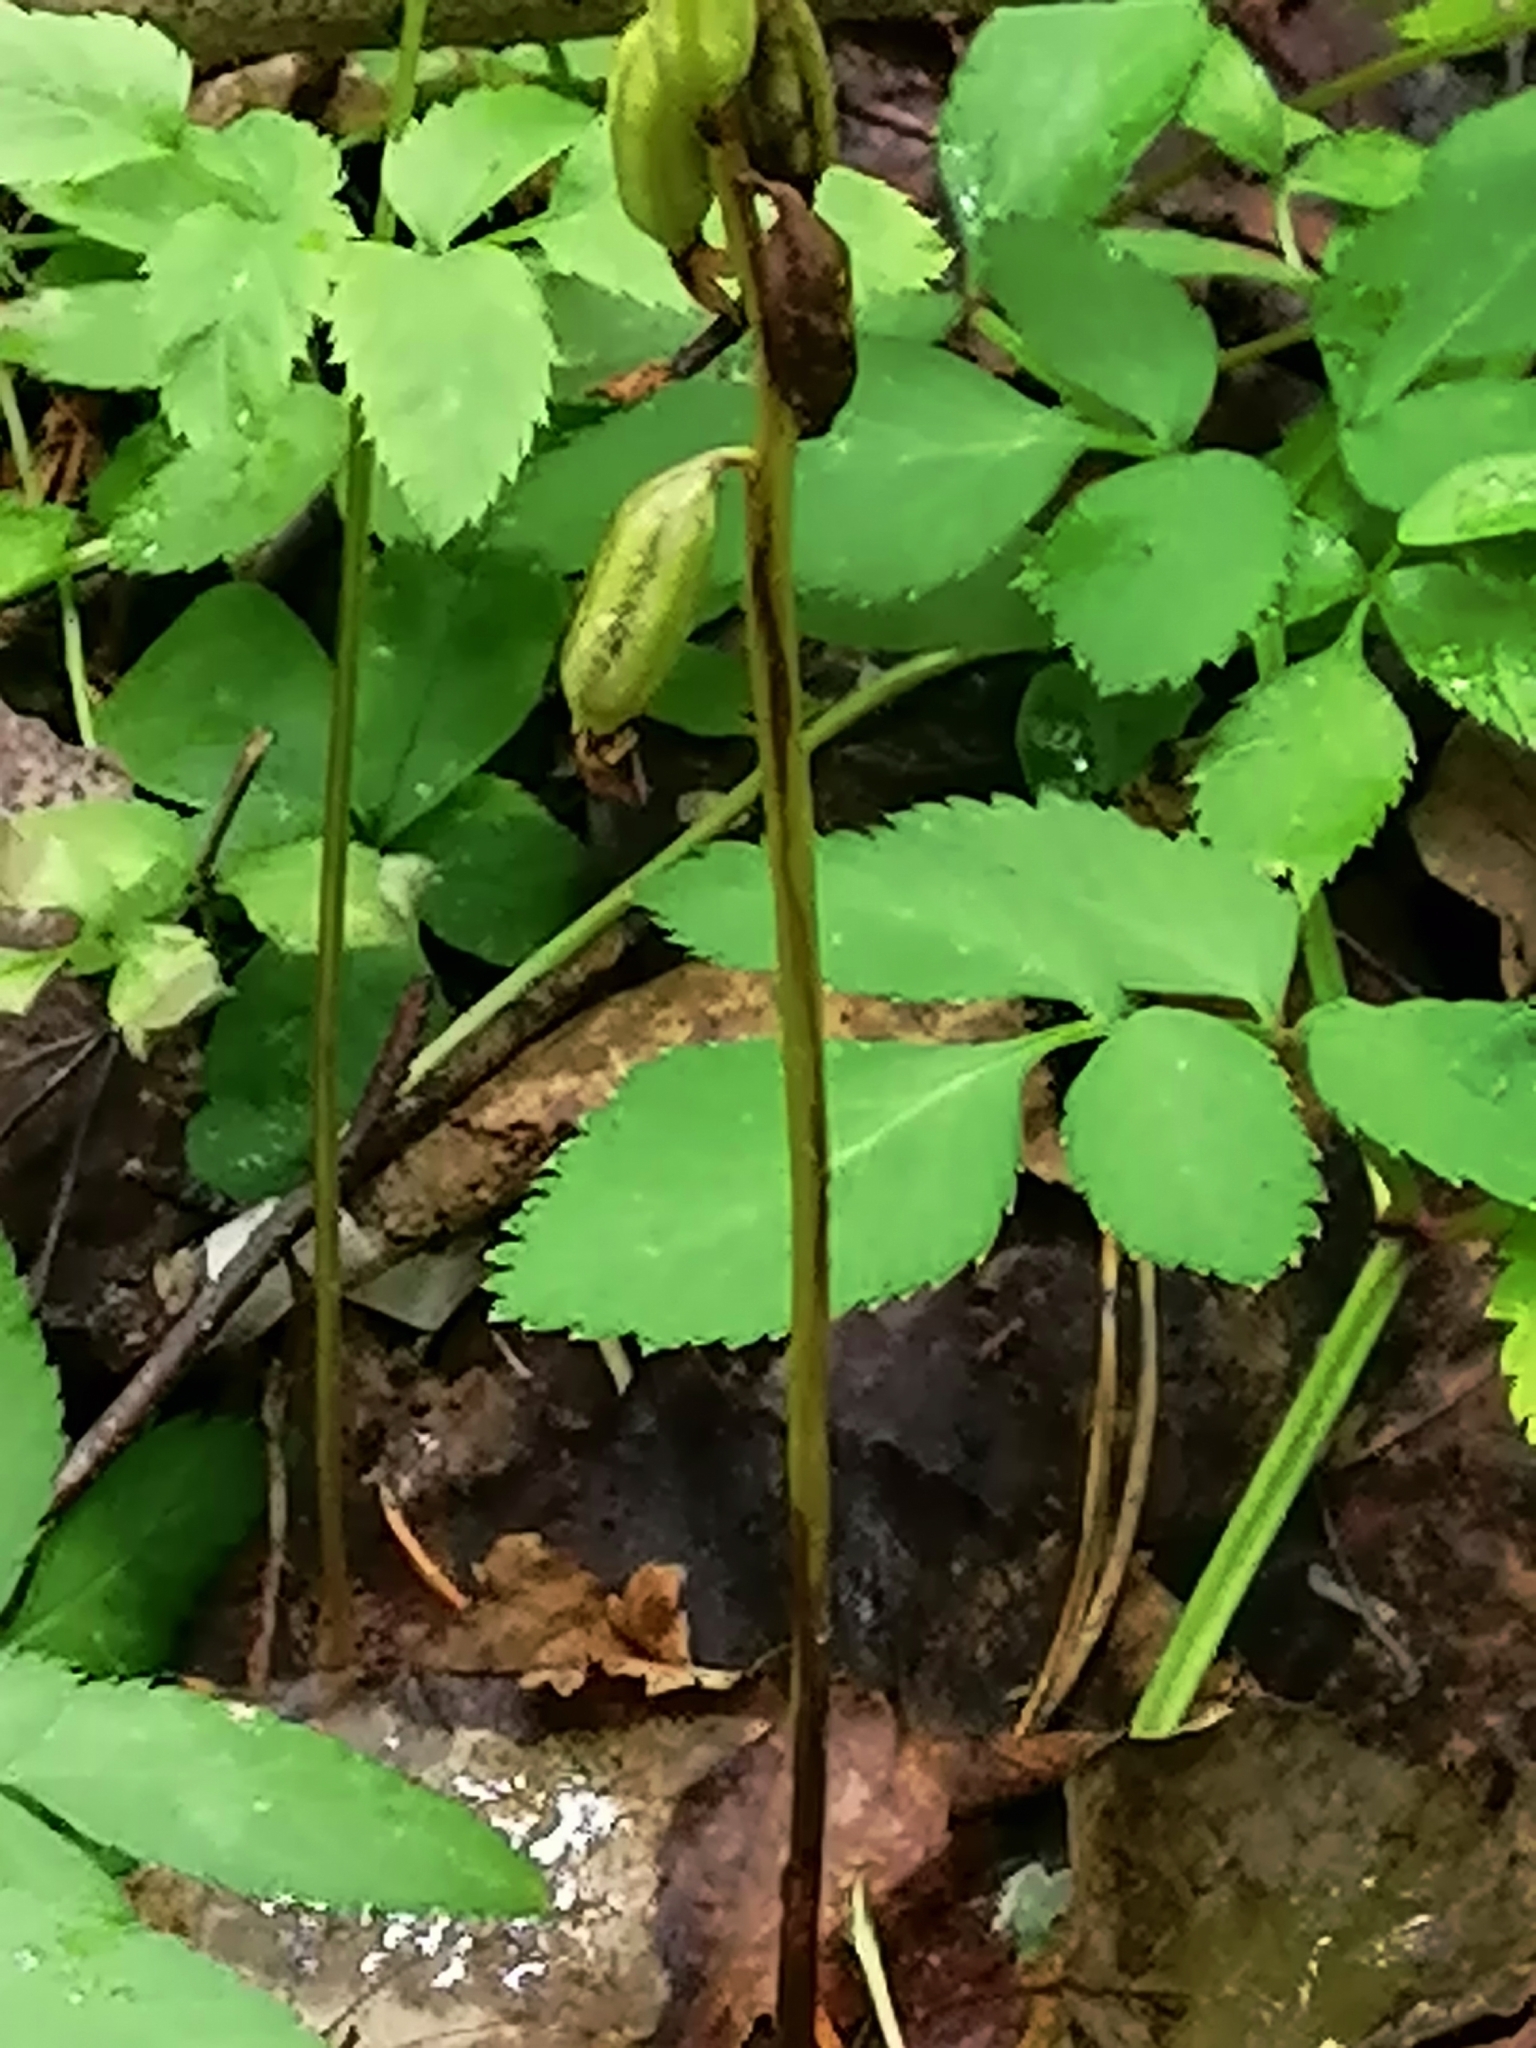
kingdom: Plantae
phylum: Tracheophyta
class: Liliopsida
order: Asparagales
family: Orchidaceae
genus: Corallorhiza
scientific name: Corallorhiza trifida
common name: Yellow coralroot
